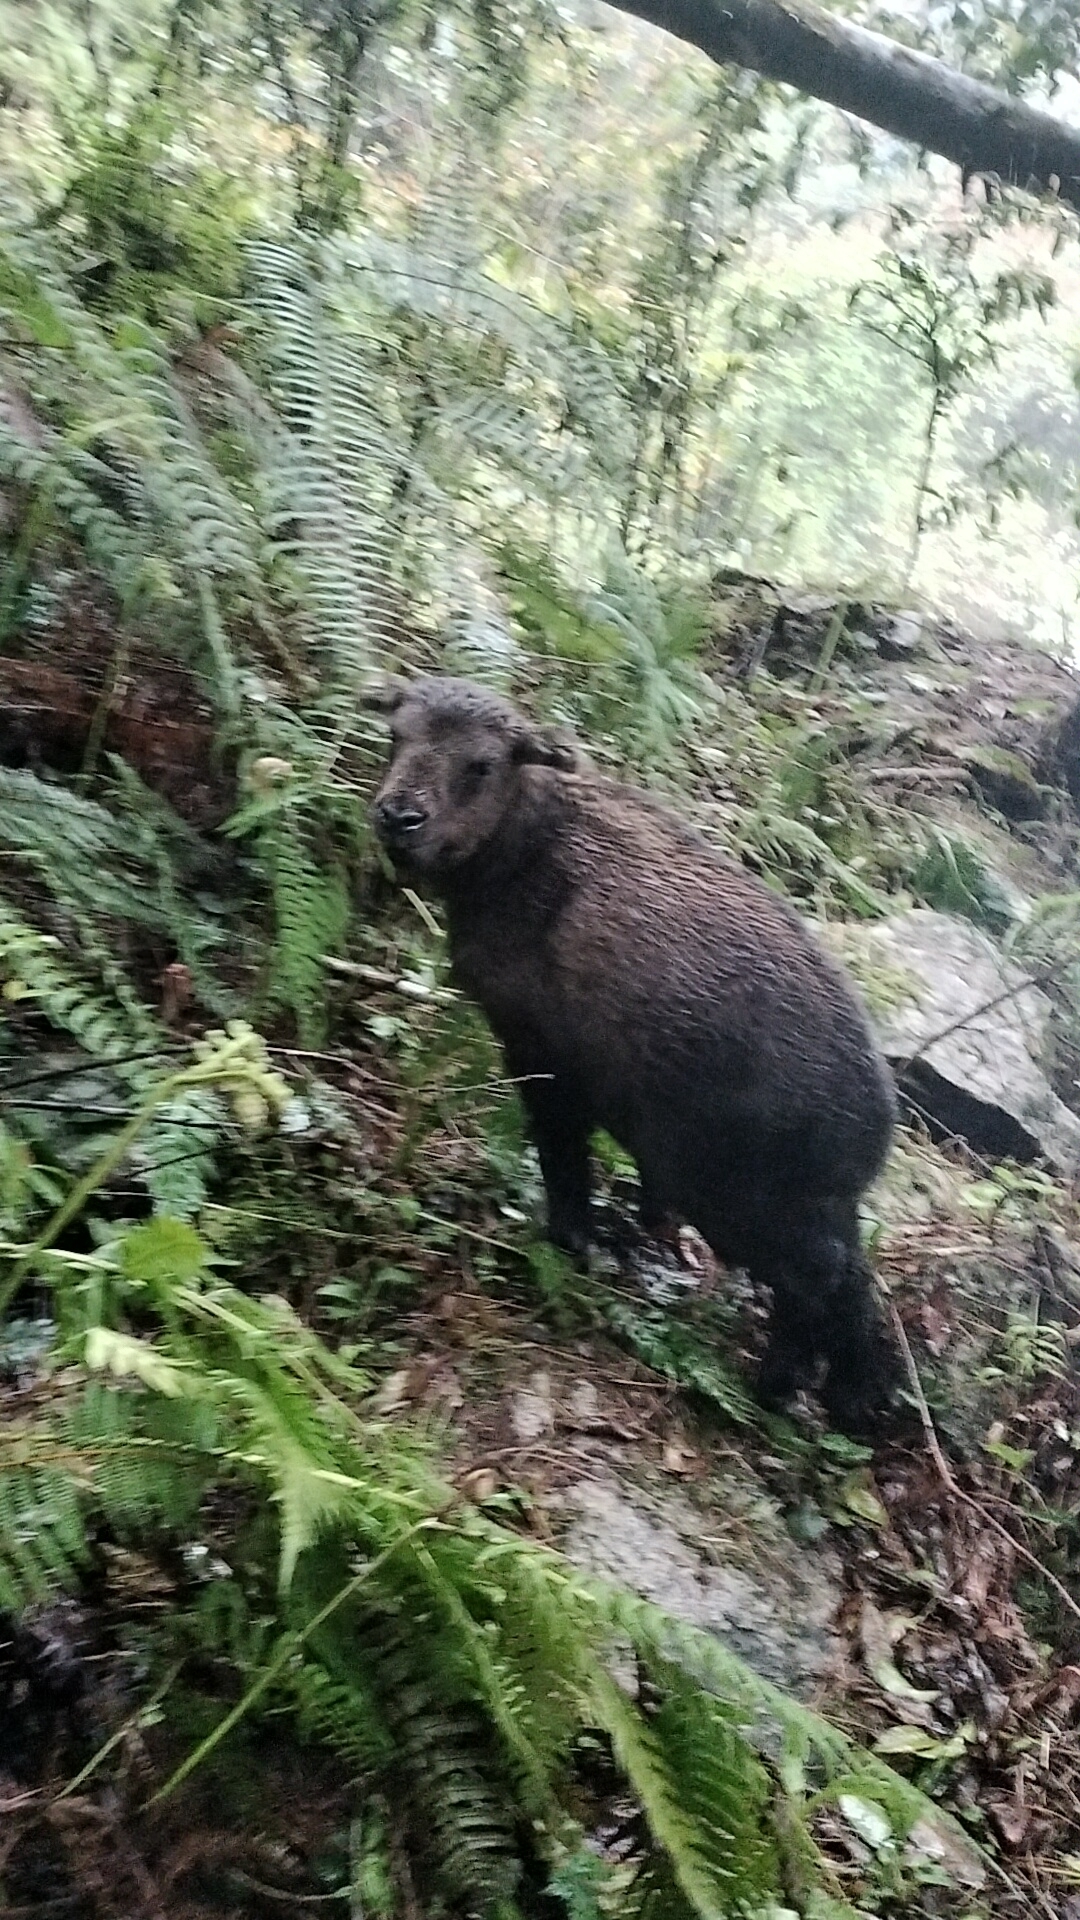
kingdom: Animalia
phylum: Chordata
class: Mammalia
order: Artiodactyla
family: Bovidae
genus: Budorcas
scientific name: Budorcas taxicolor
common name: Takin
